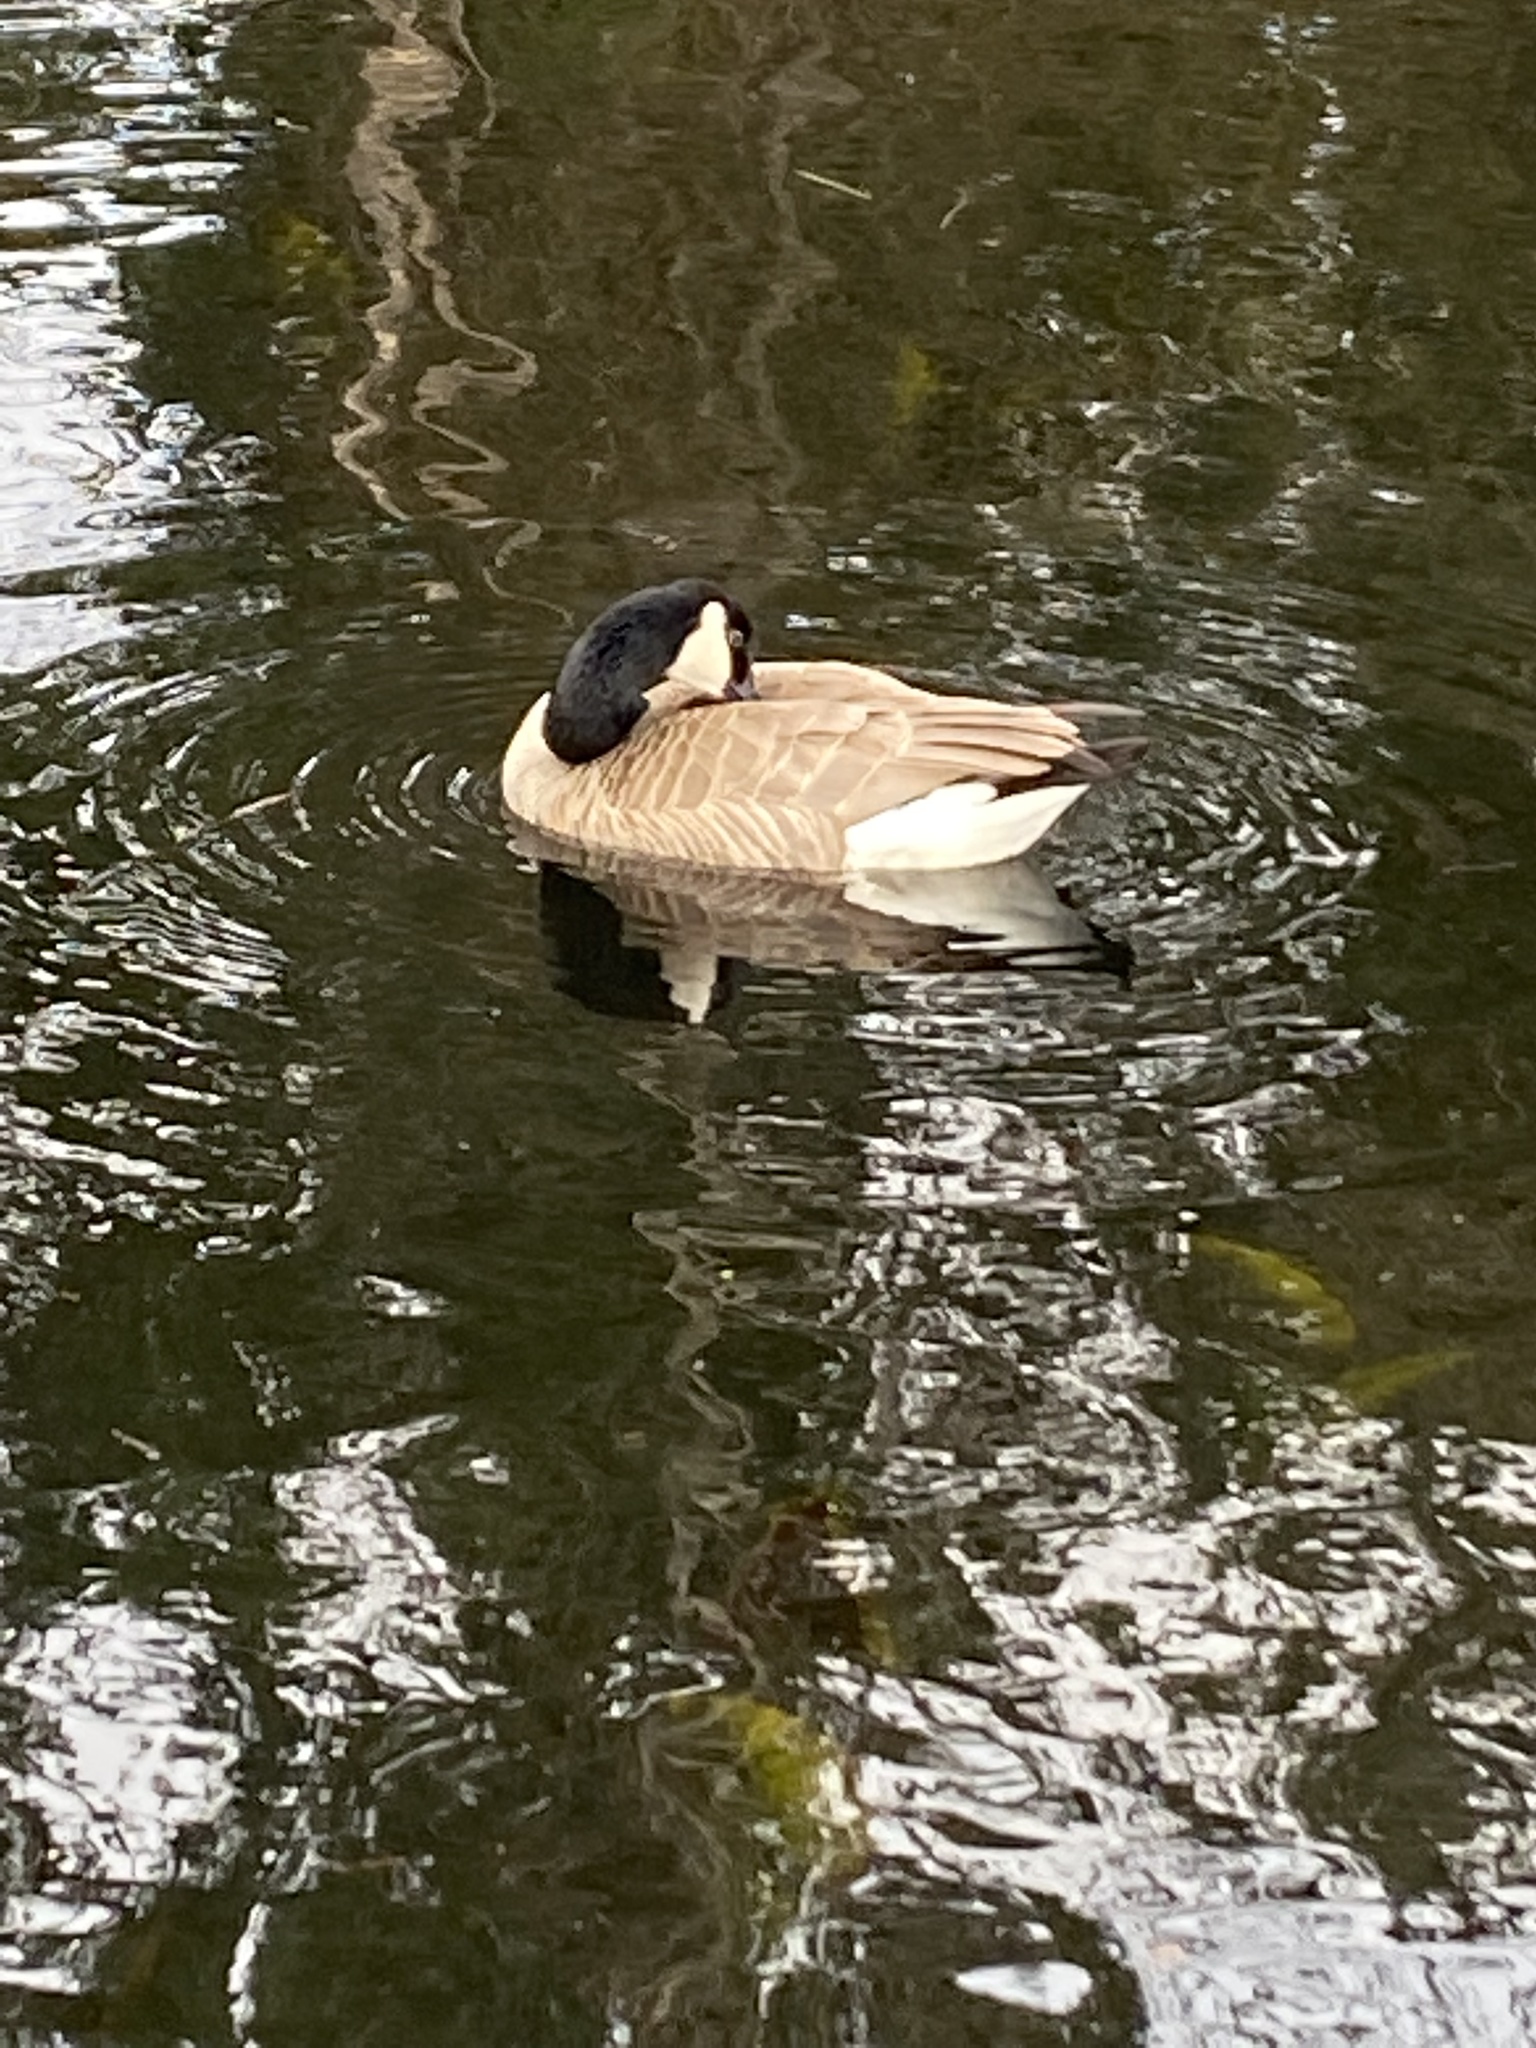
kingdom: Animalia
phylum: Chordata
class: Aves
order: Anseriformes
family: Anatidae
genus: Branta
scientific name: Branta canadensis
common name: Canada goose
